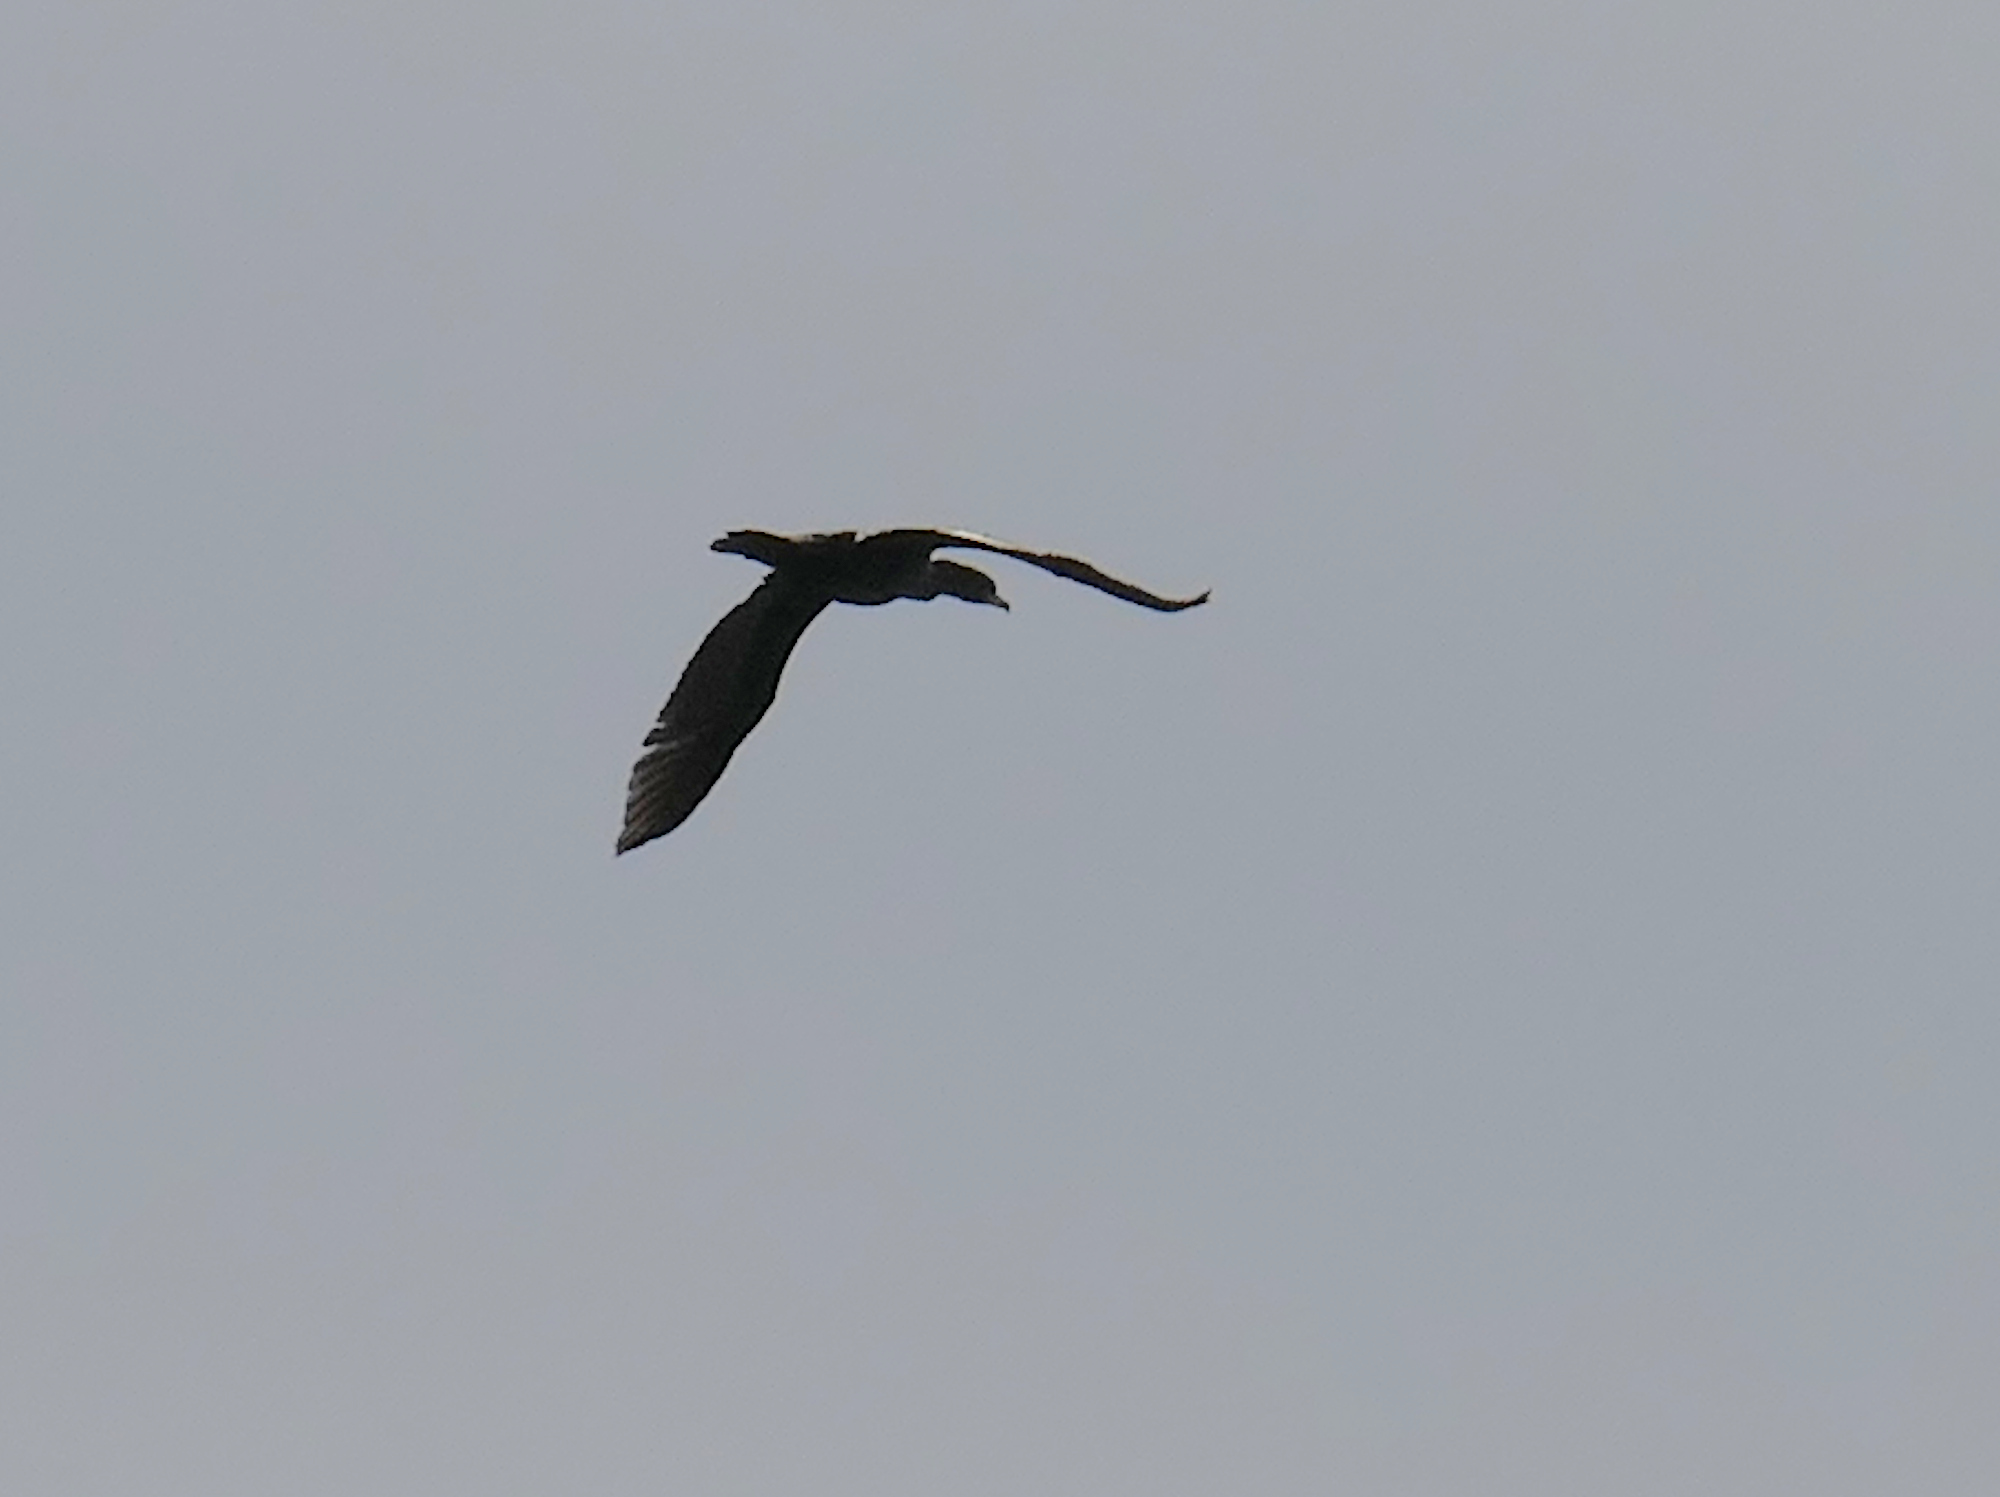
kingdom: Animalia
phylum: Chordata
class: Aves
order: Suliformes
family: Phalacrocoracidae
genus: Phalacrocorax
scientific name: Phalacrocorax auritus
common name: Double-crested cormorant
